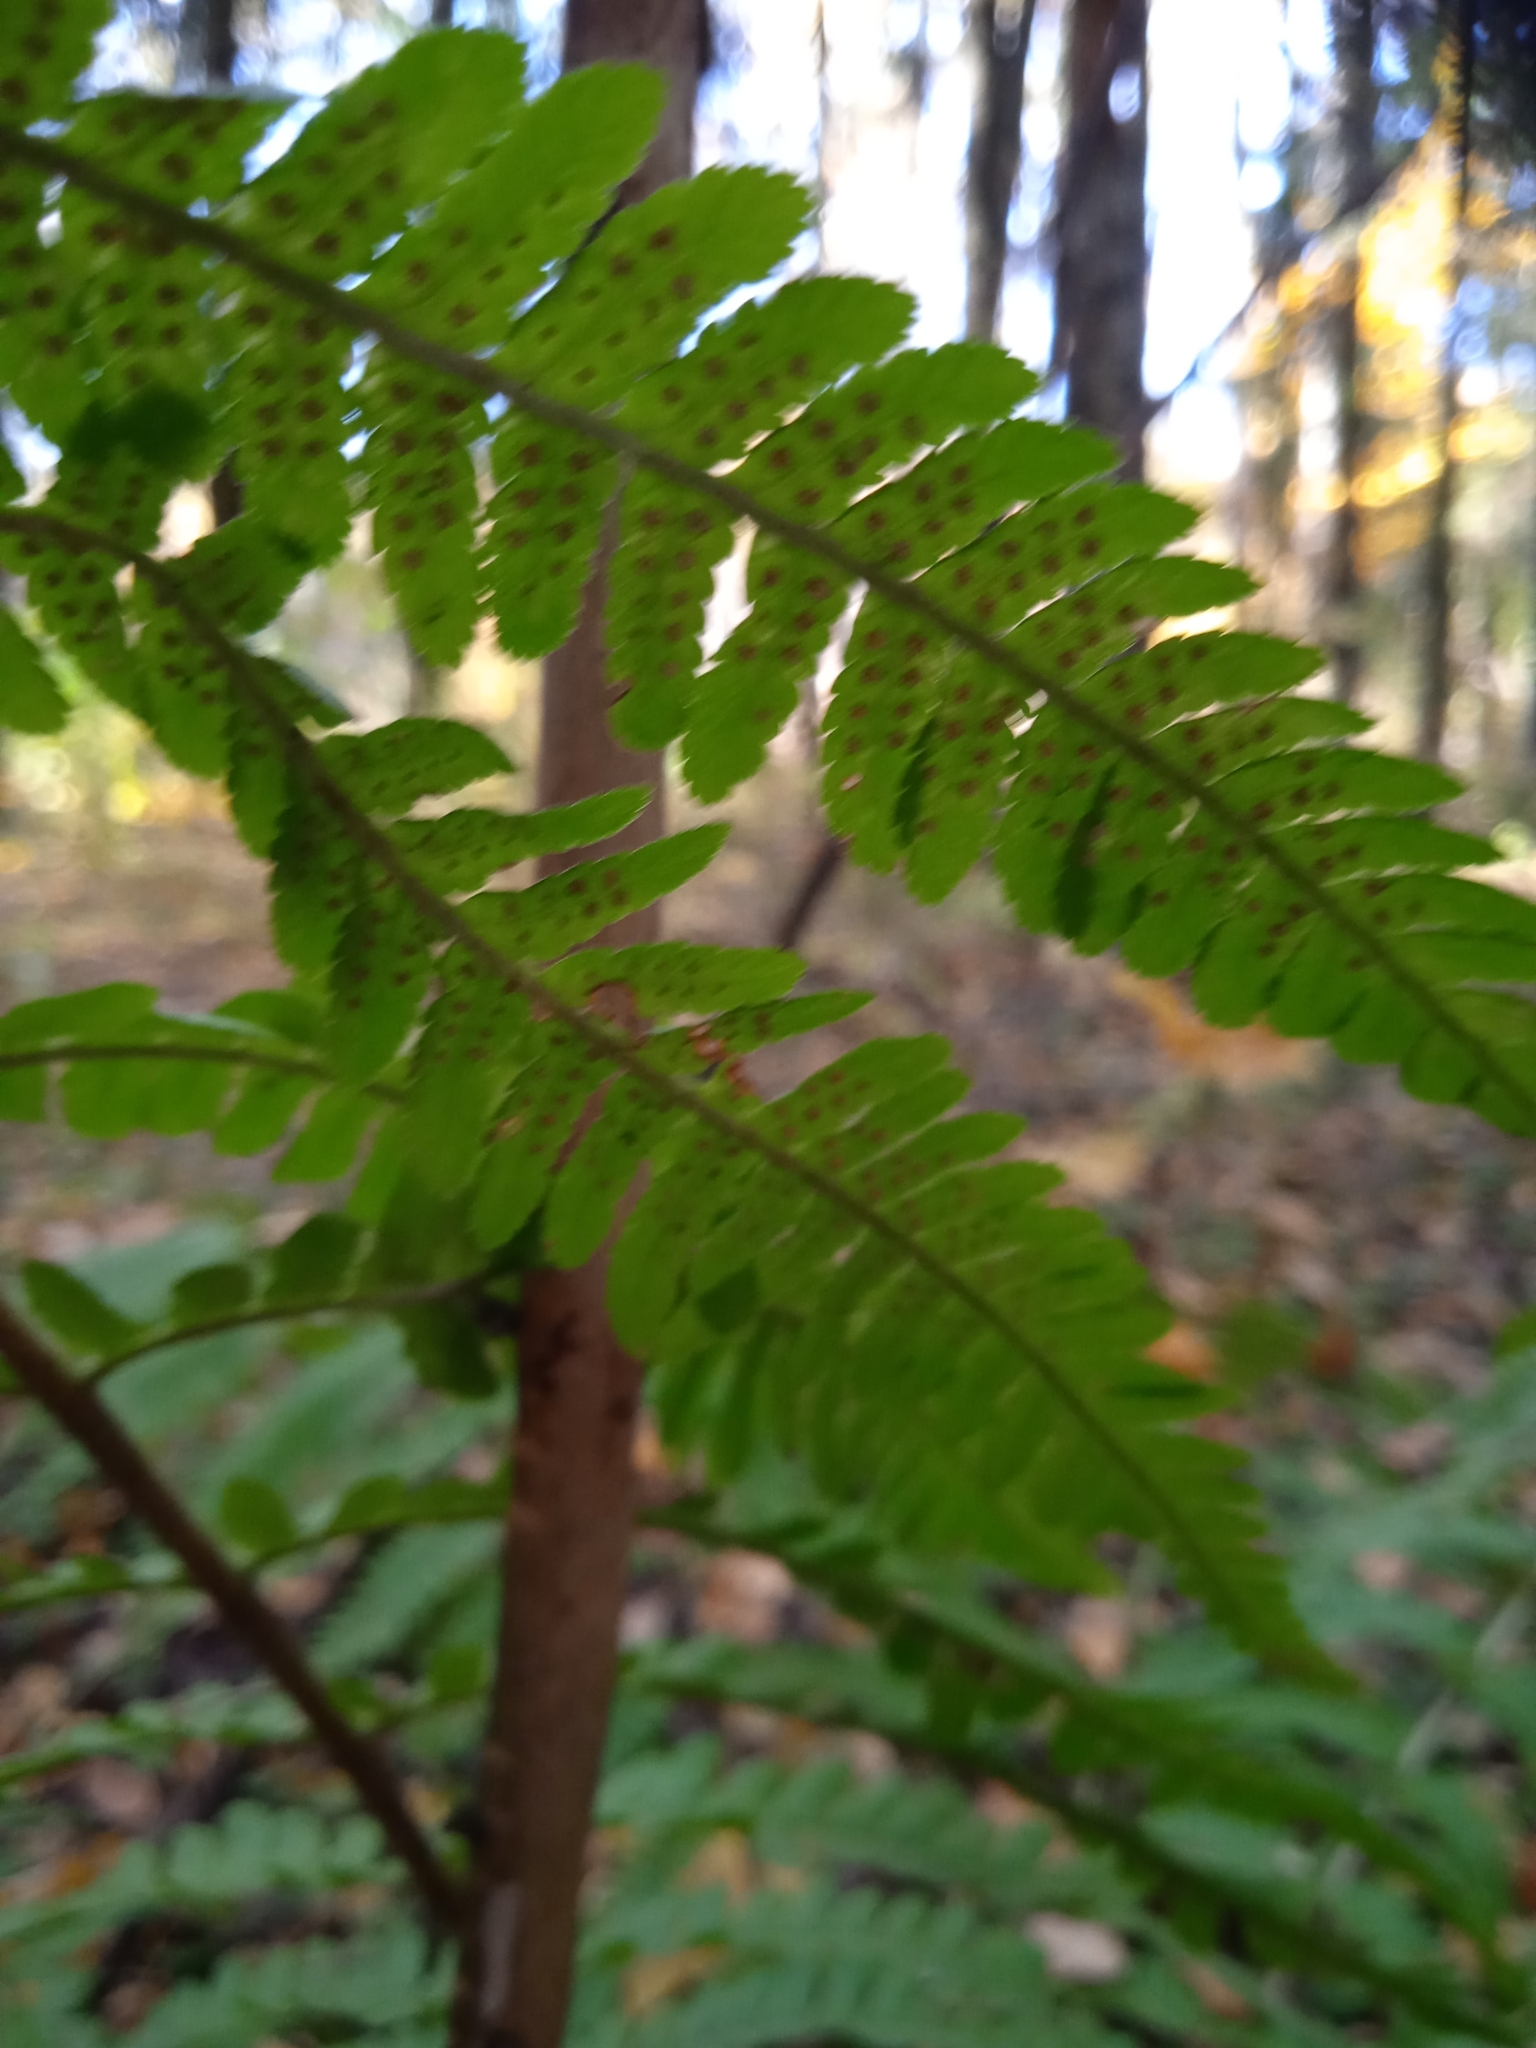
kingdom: Plantae
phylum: Tracheophyta
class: Polypodiopsida
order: Polypodiales
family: Dryopteridaceae
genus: Dryopteris
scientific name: Dryopteris filix-mas
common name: Male fern
